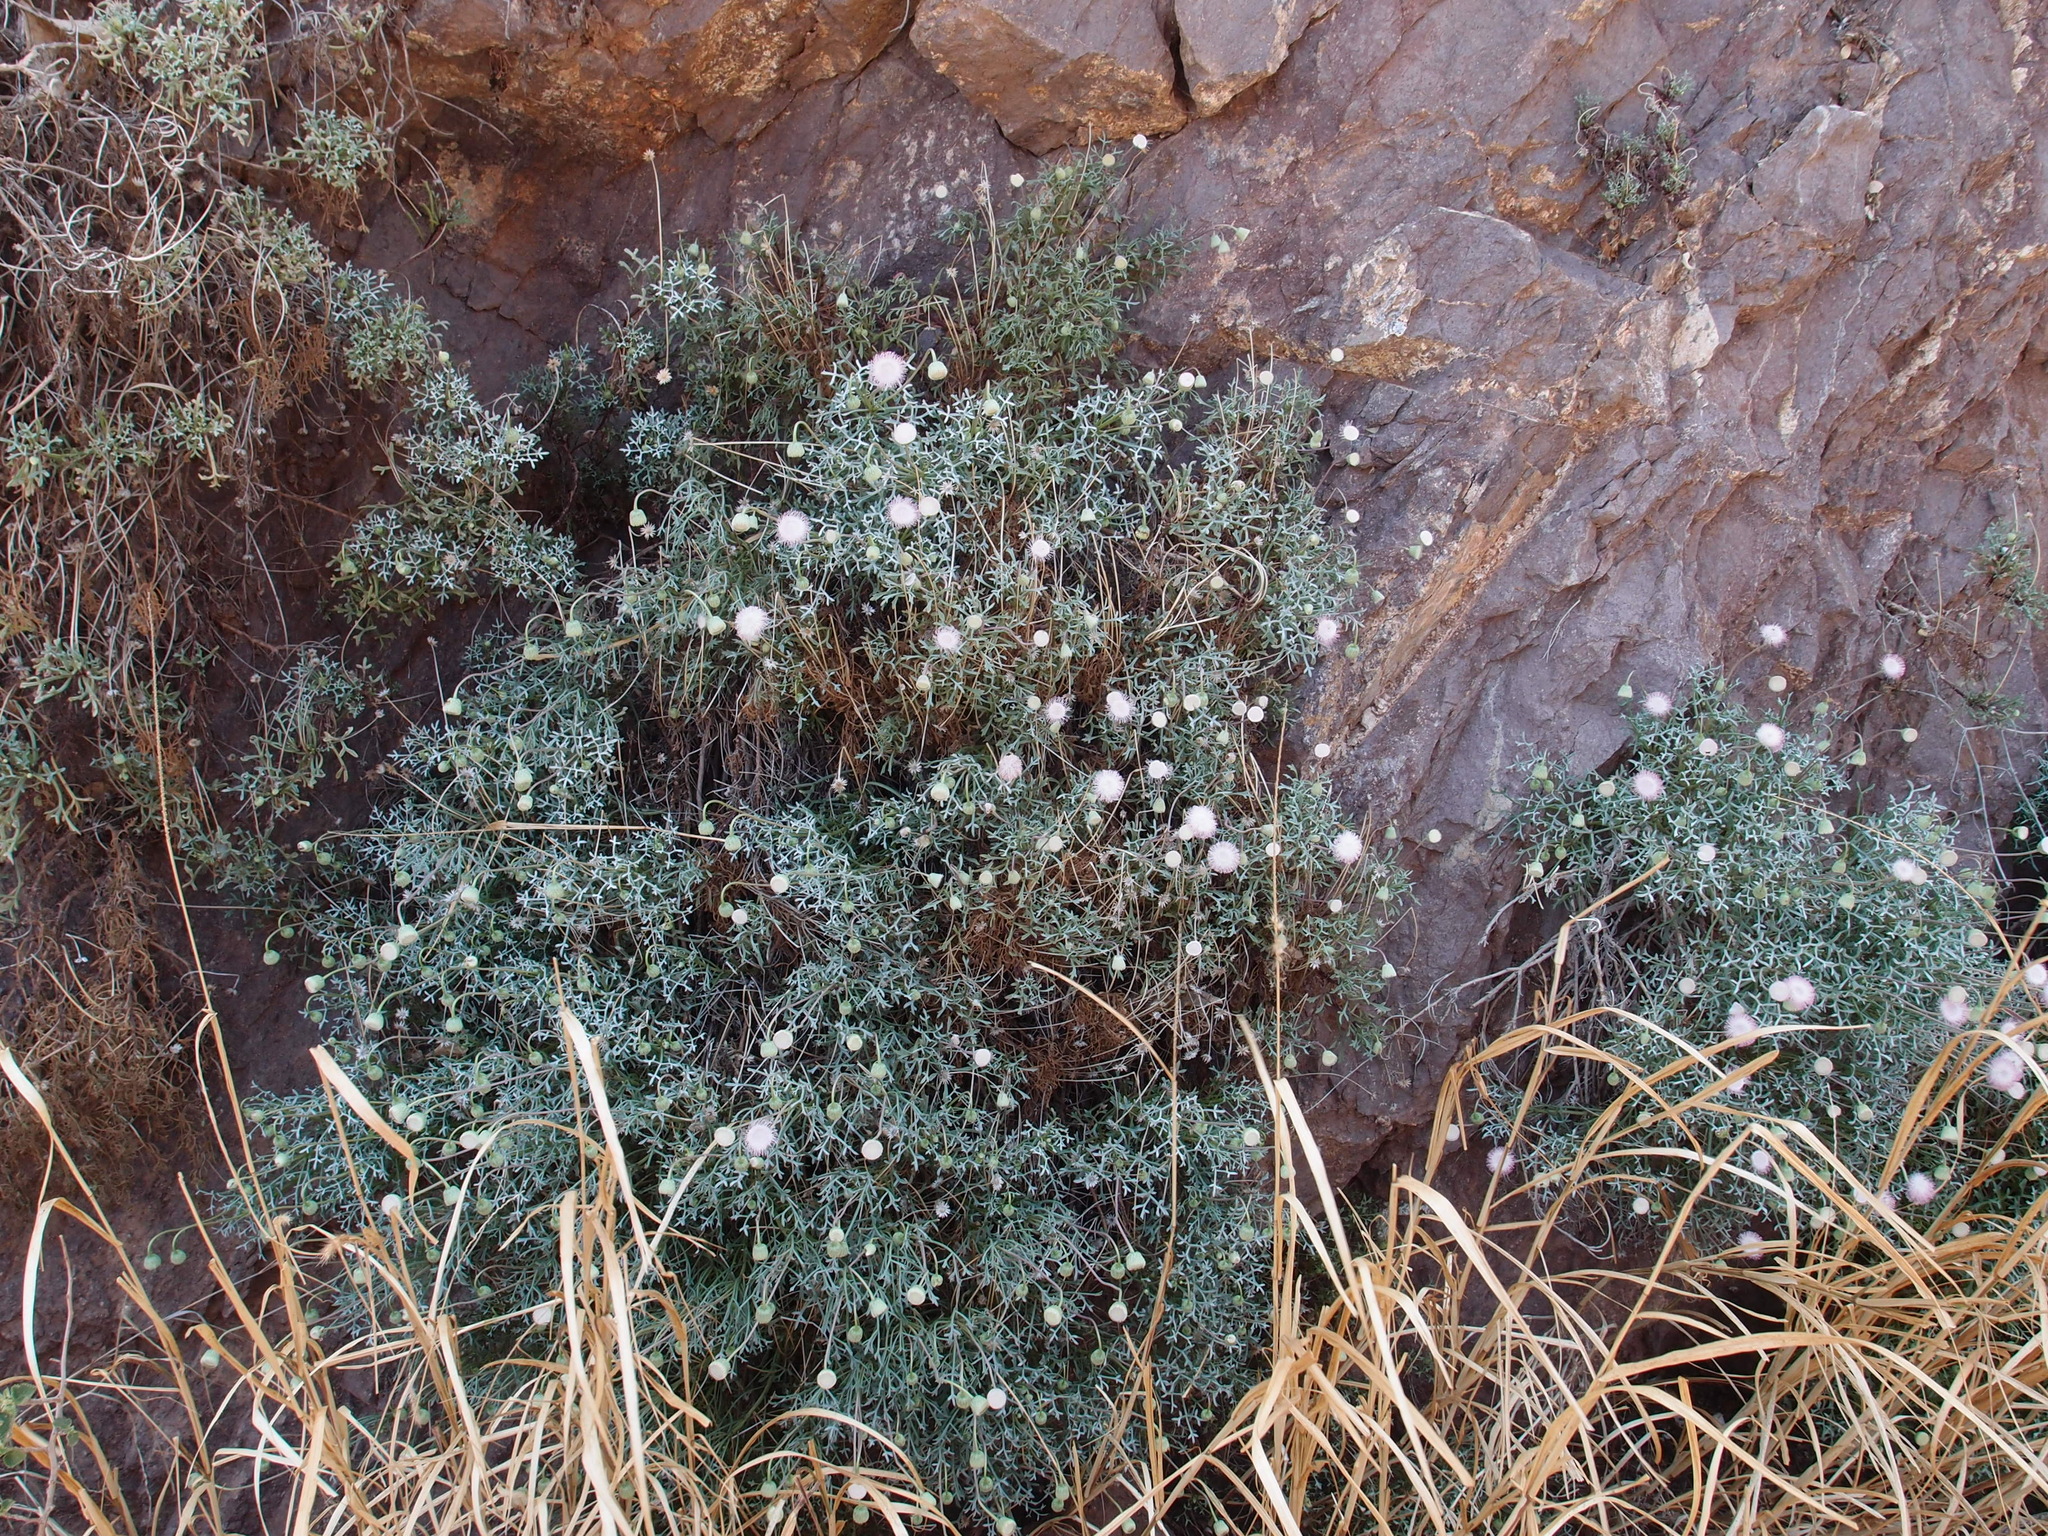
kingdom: Plantae
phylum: Tracheophyta
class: Magnoliopsida
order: Asterales
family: Asteraceae
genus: Hofmeisteria
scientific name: Hofmeisteria crassifolia
